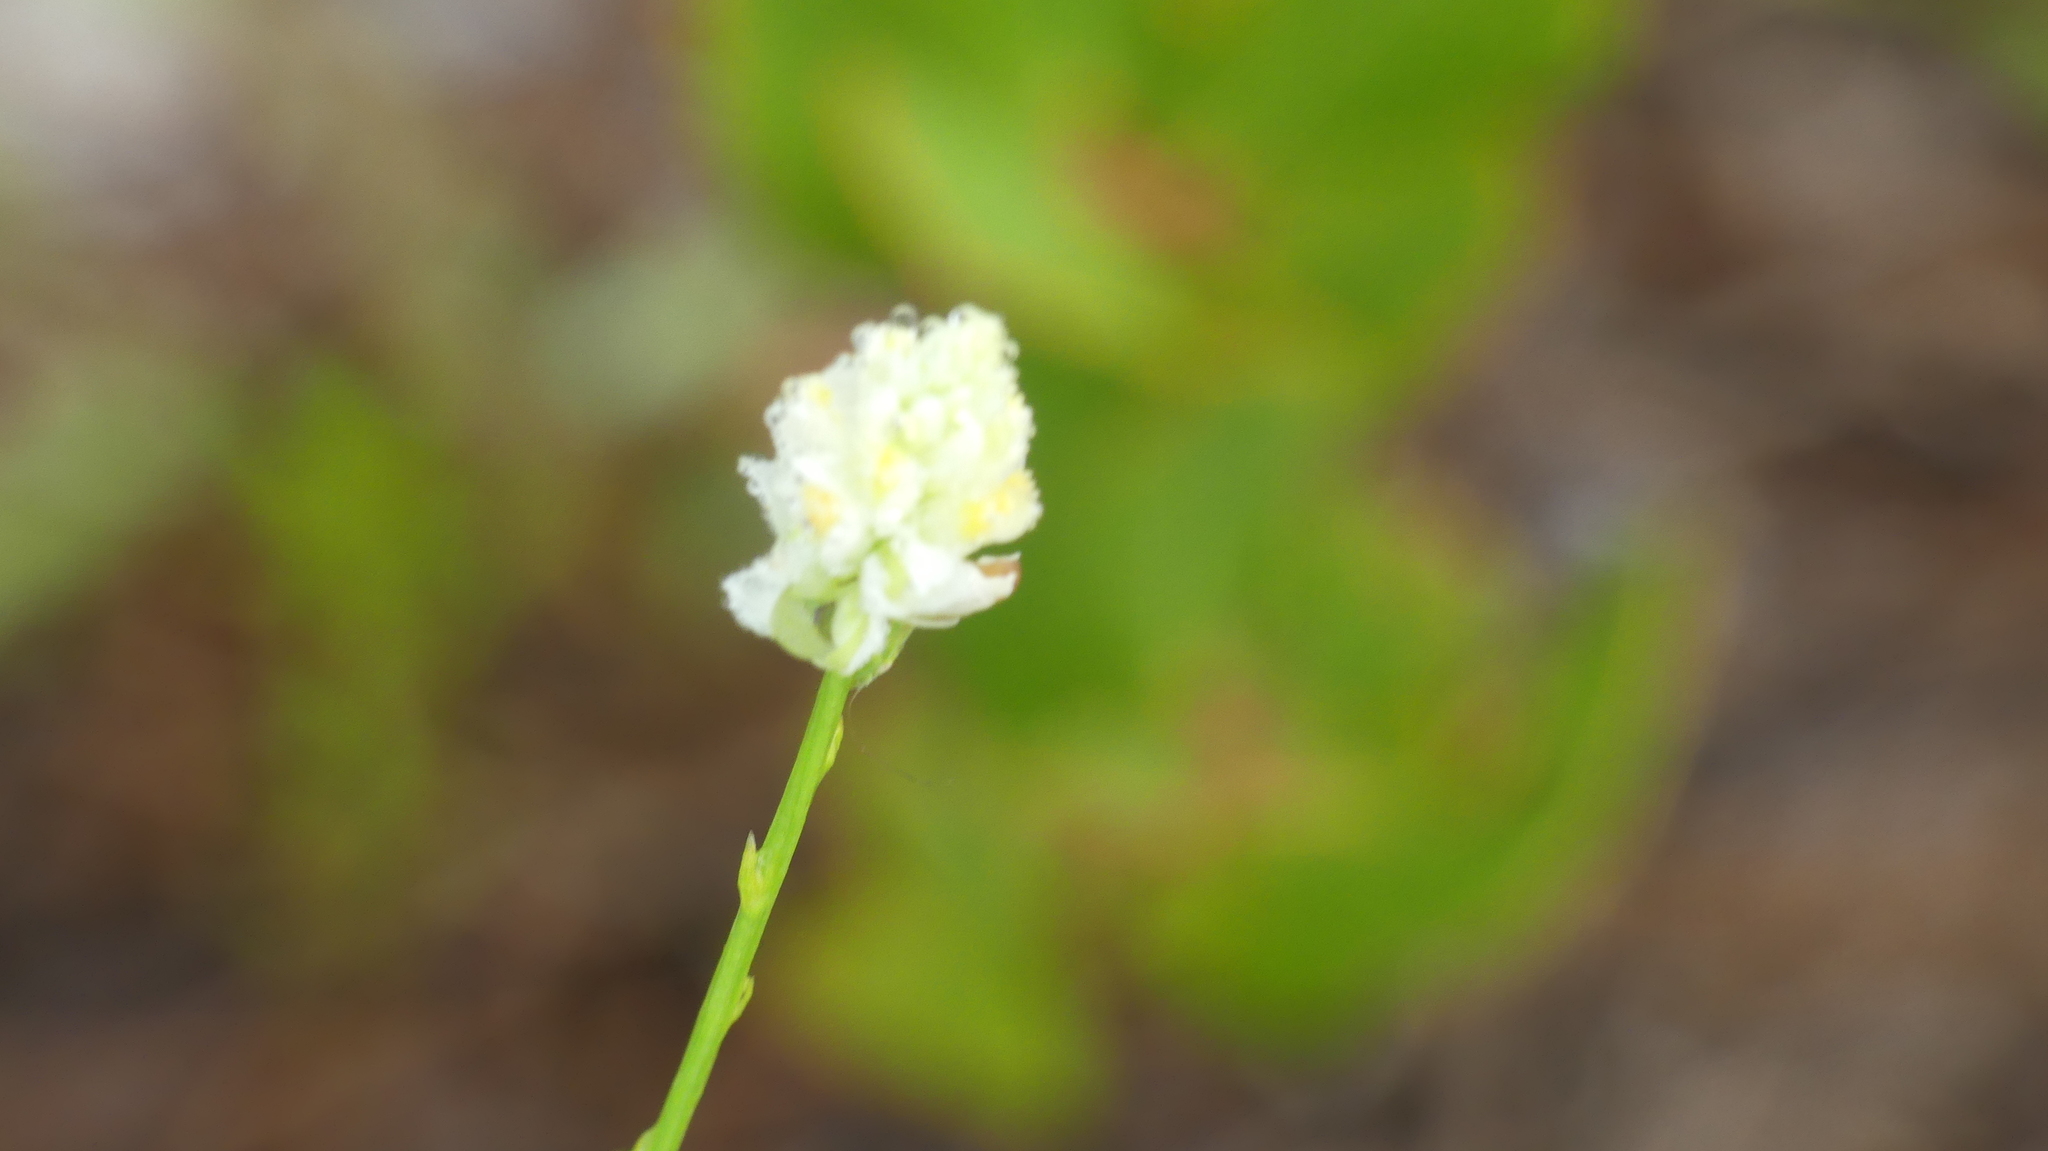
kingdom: Plantae
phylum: Tracheophyta
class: Magnoliopsida
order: Fabales
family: Polygalaceae
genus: Polygala
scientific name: Polygala setacea
